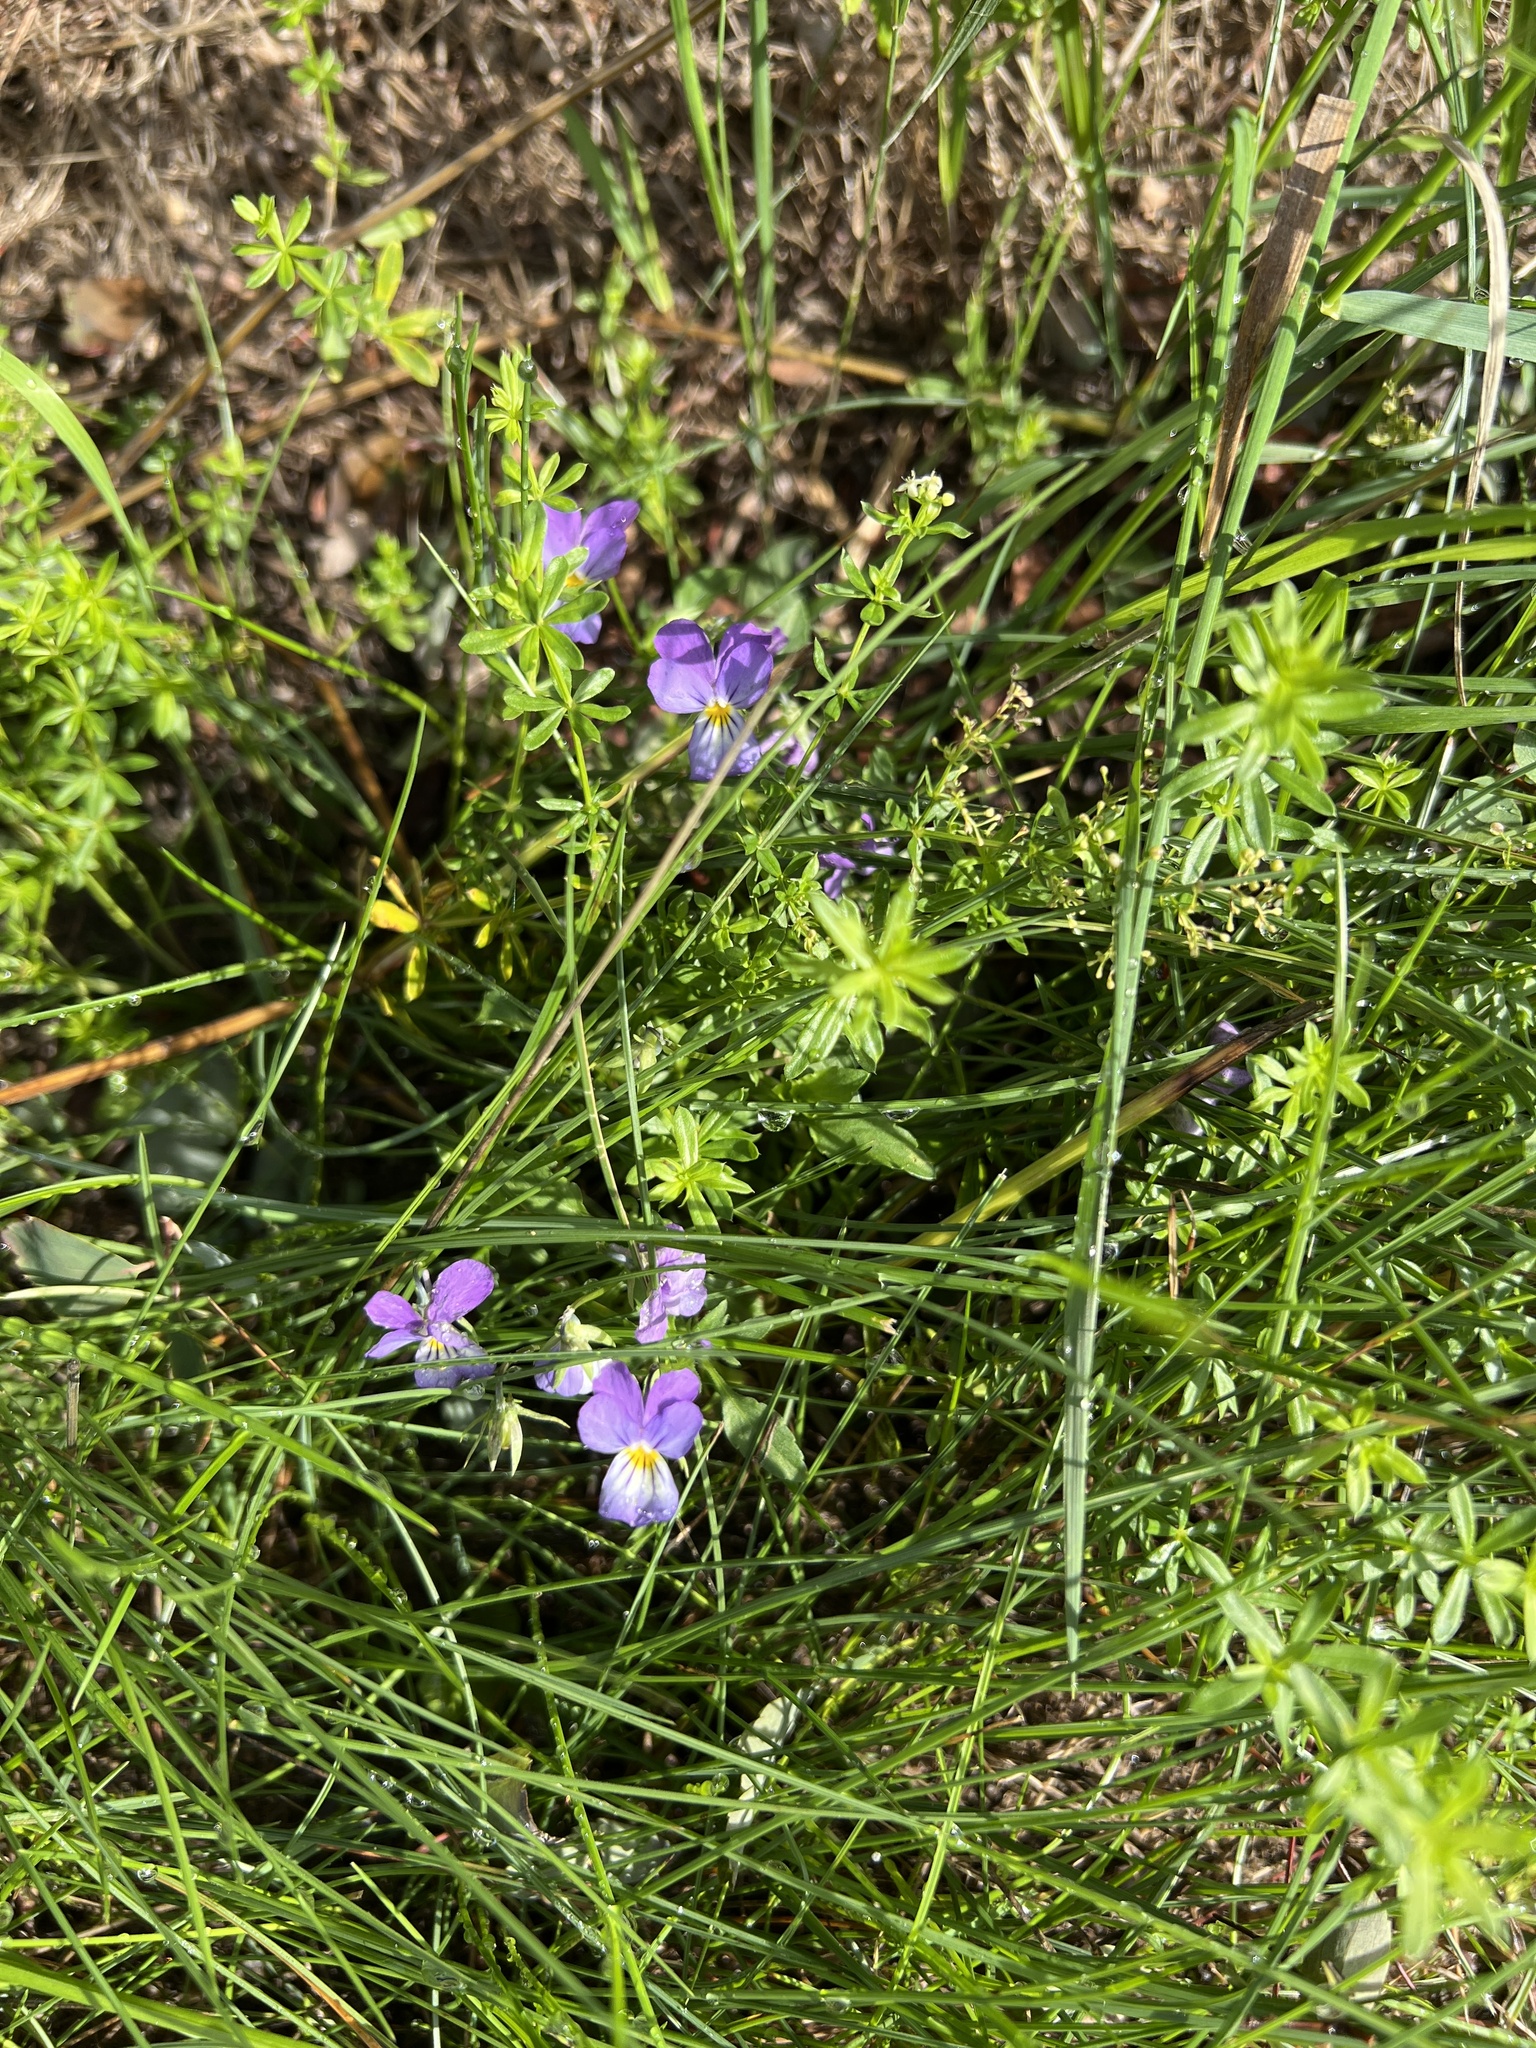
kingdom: Plantae
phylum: Tracheophyta
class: Magnoliopsida
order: Malpighiales
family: Violaceae
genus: Viola
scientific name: Viola tricolor
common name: Pansy
